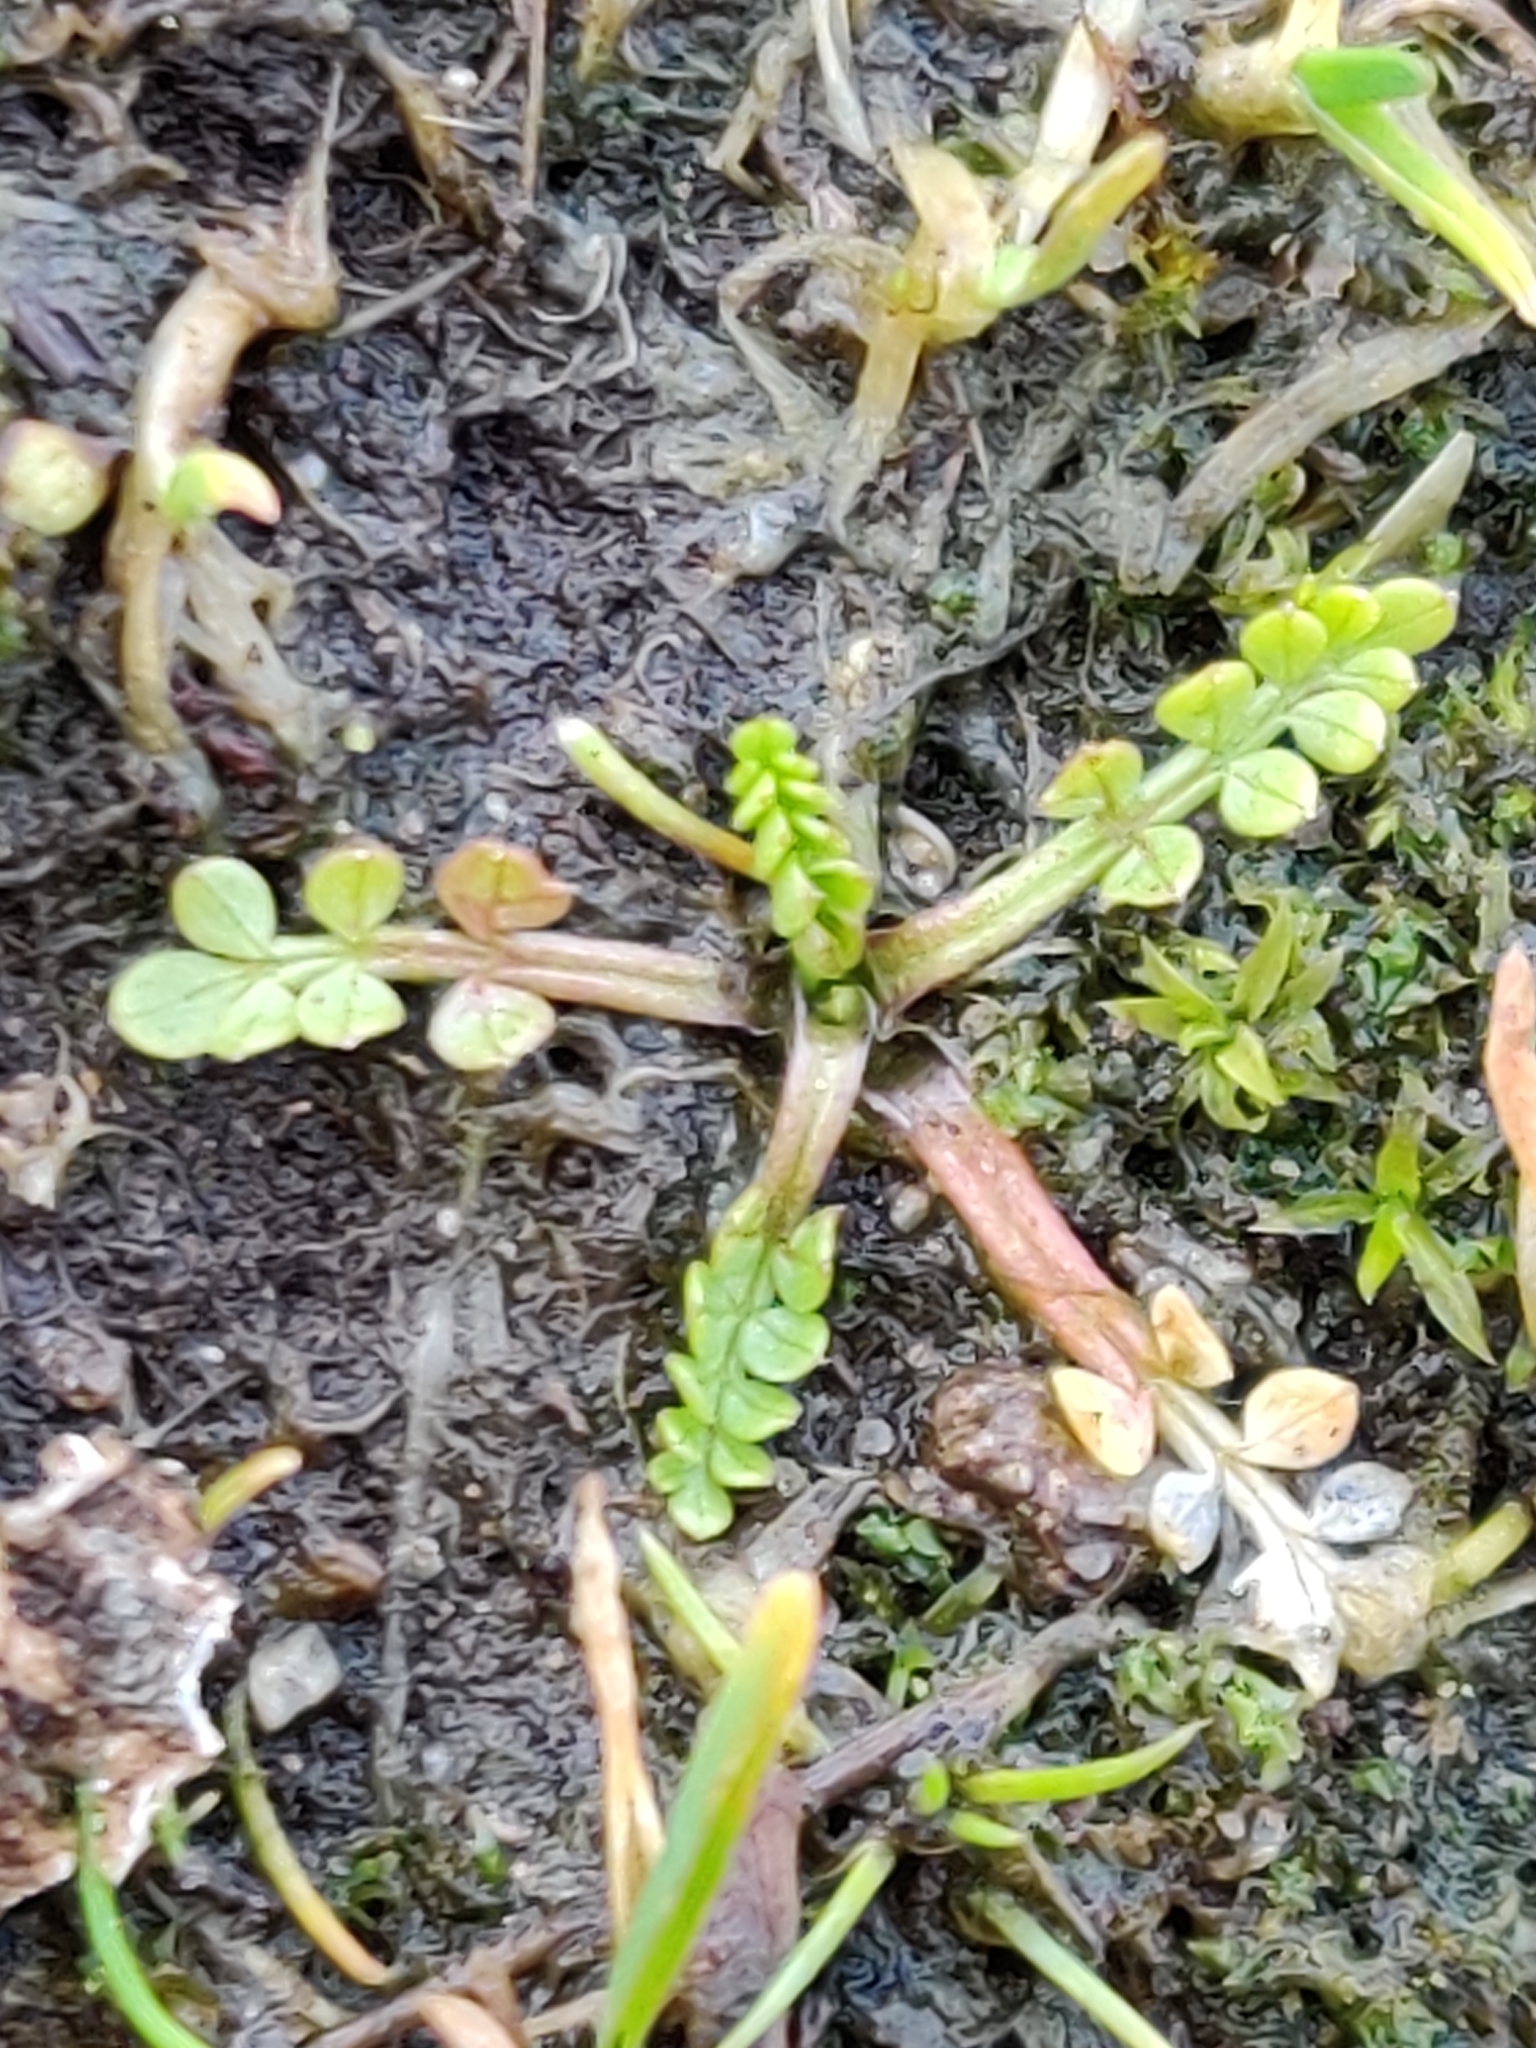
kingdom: Plantae
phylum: Tracheophyta
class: Magnoliopsida
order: Brassicales
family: Limnanthaceae
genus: Limnanthes
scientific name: Limnanthes macounii
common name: Macoun's meadowfoam
